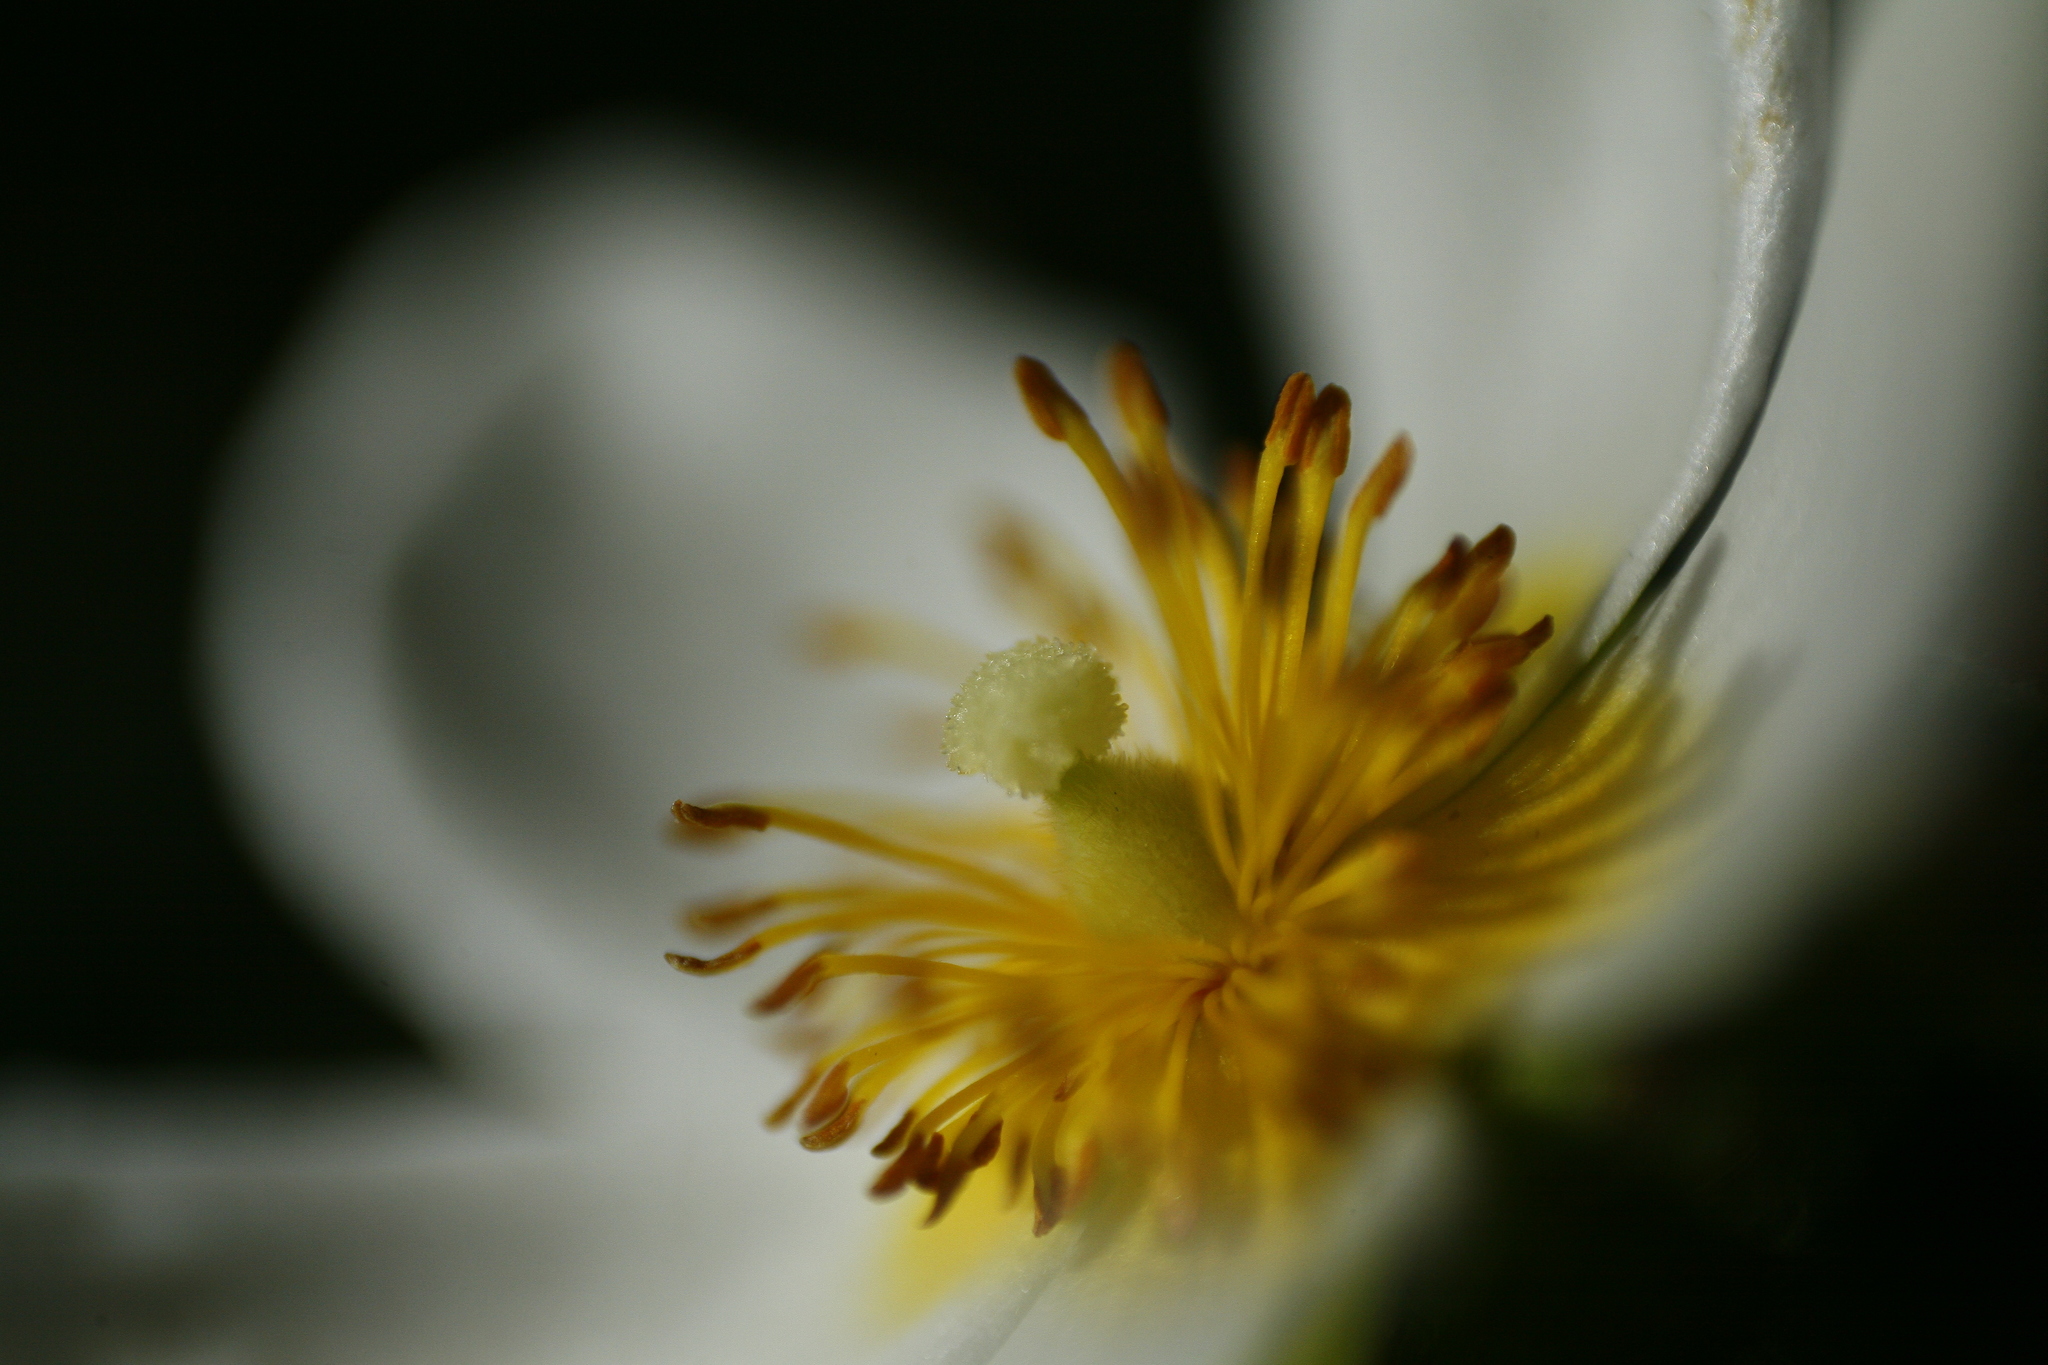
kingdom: Plantae
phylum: Tracheophyta
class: Magnoliopsida
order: Malvales
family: Cistaceae
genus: Cistus
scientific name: Cistus inflatus
